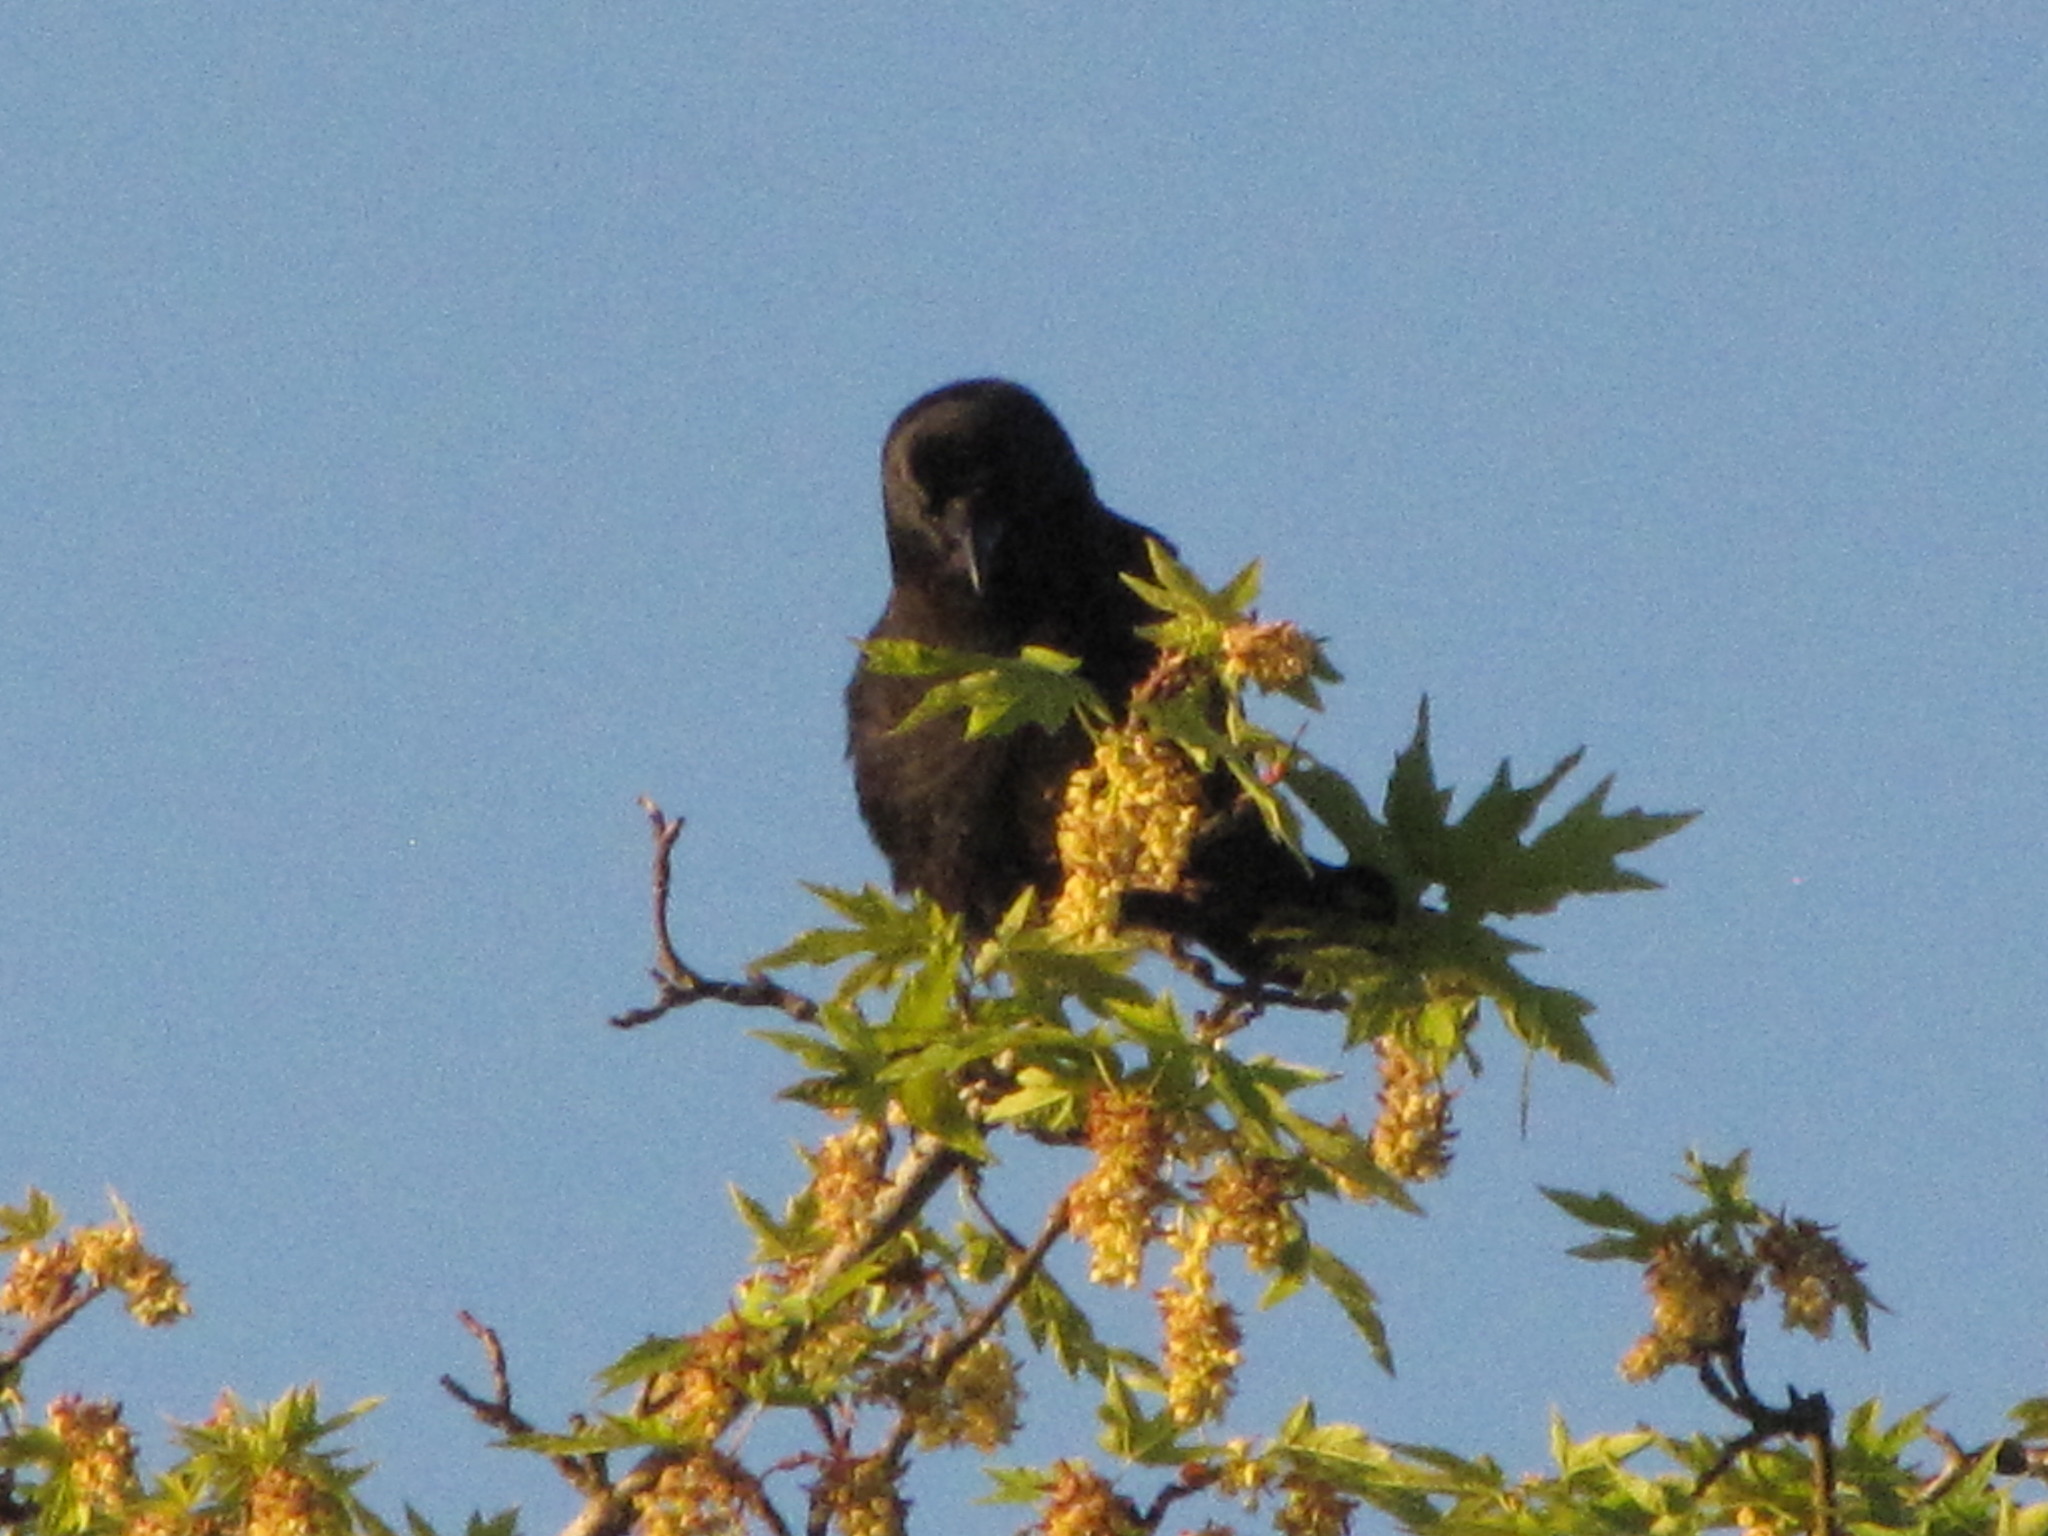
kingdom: Animalia
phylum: Chordata
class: Aves
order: Passeriformes
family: Corvidae
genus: Corvus
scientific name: Corvus brachyrhynchos
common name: American crow
